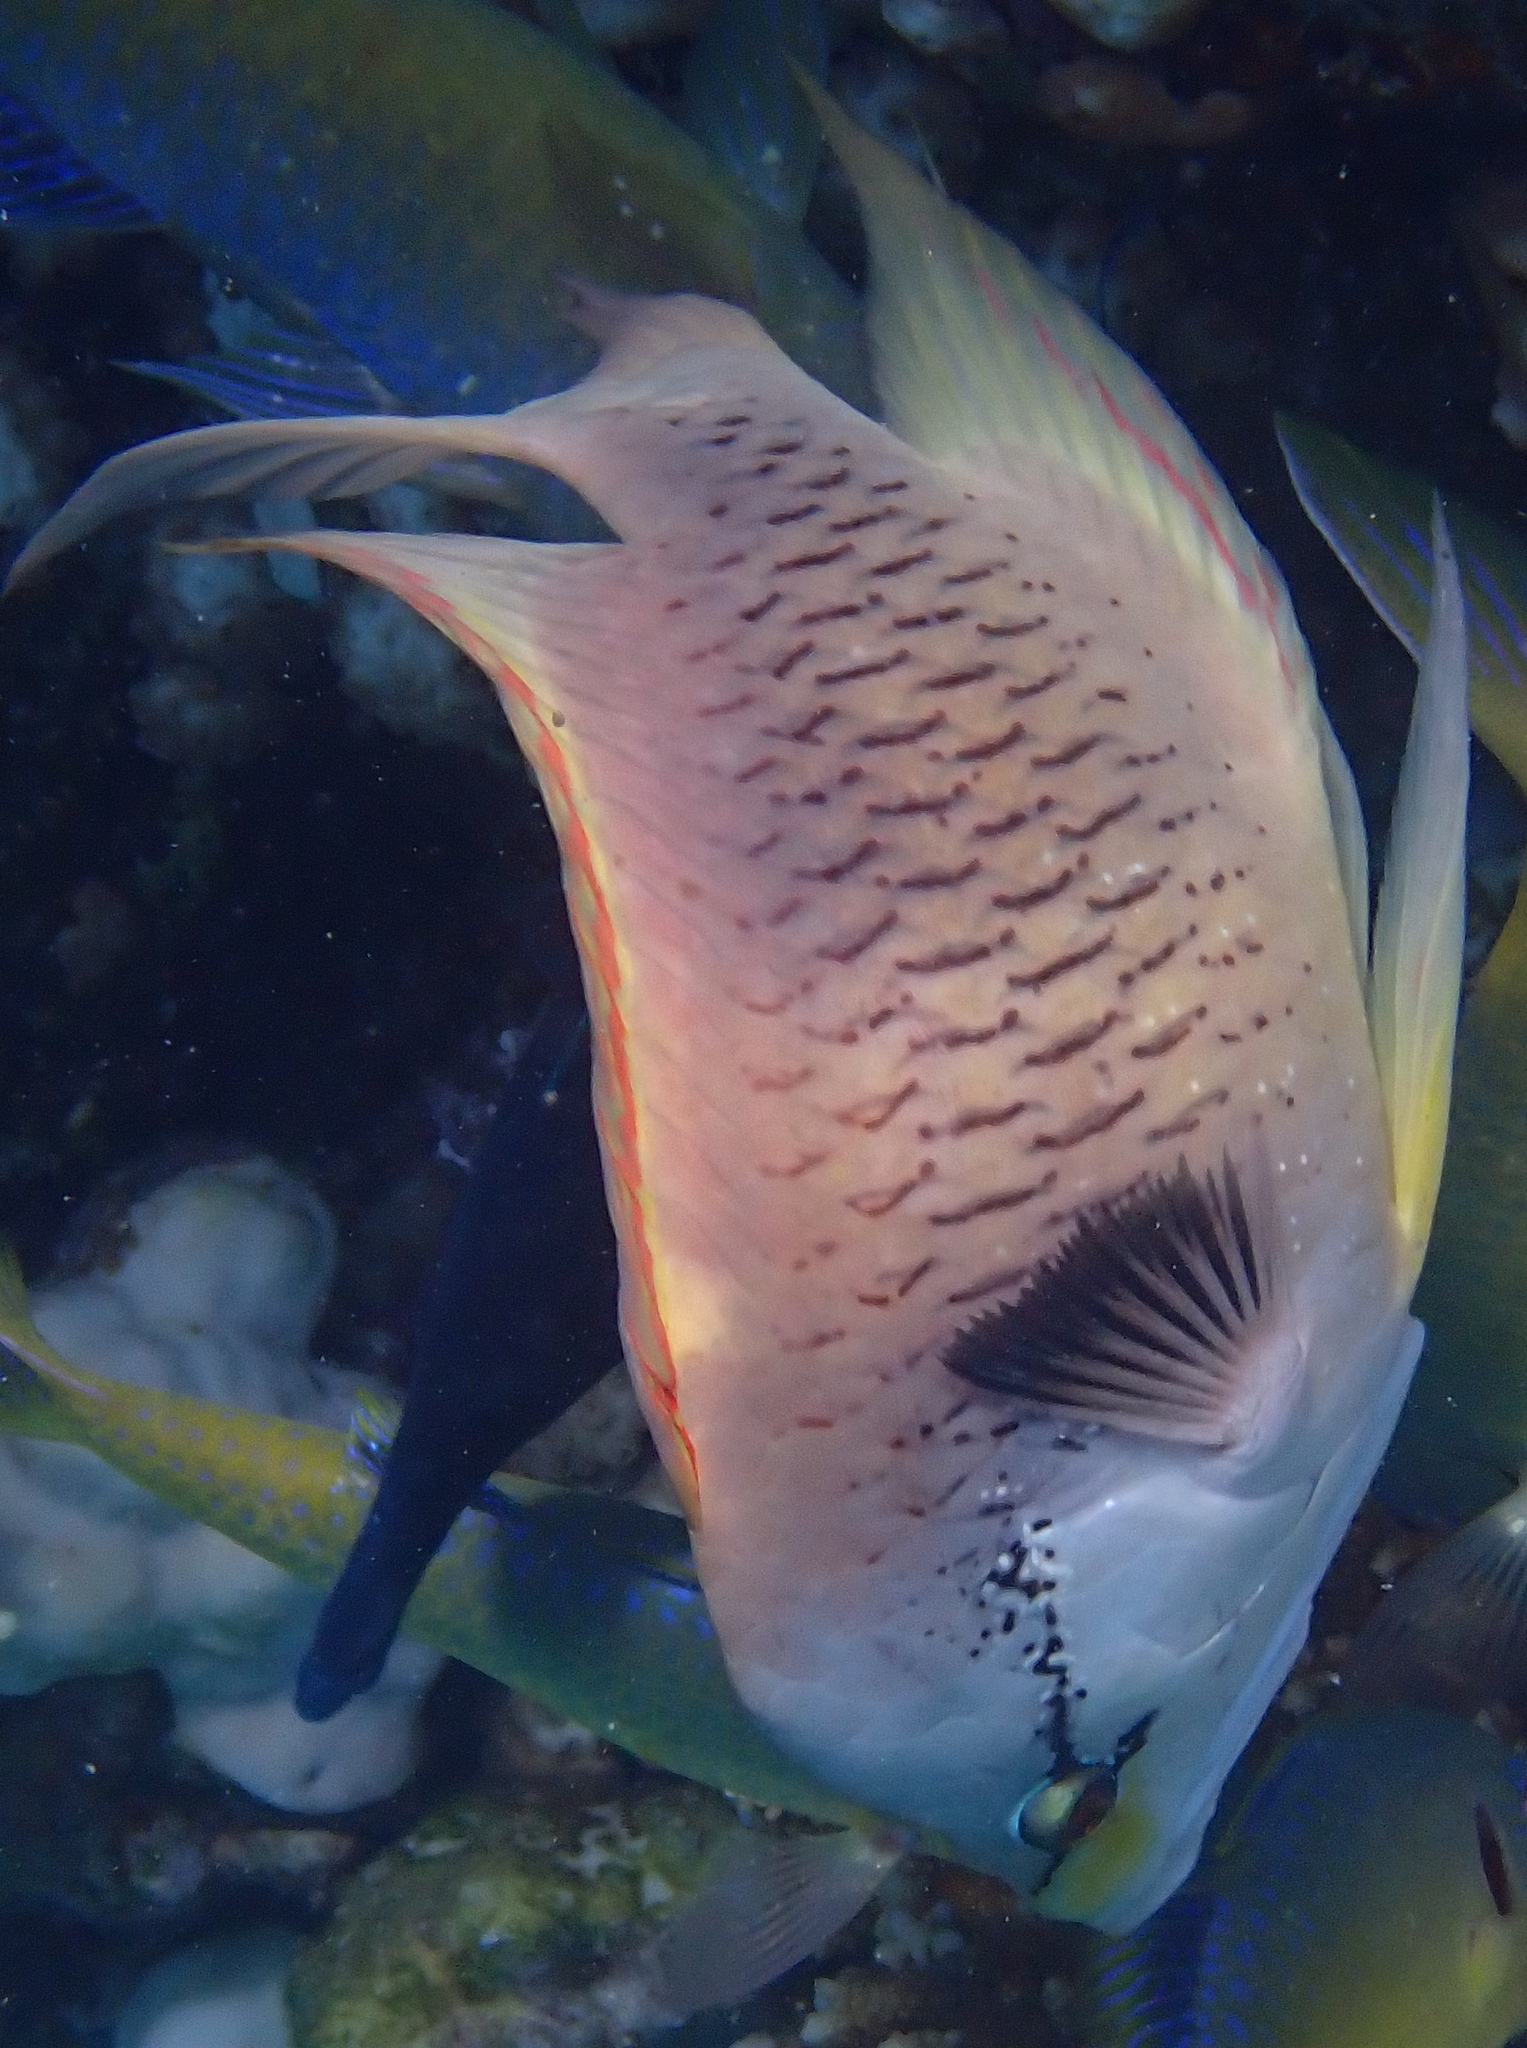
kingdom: Animalia
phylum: Chordata
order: Perciformes
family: Labridae
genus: Epibulus
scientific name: Epibulus insidiator
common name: Slingjaw wrasse
